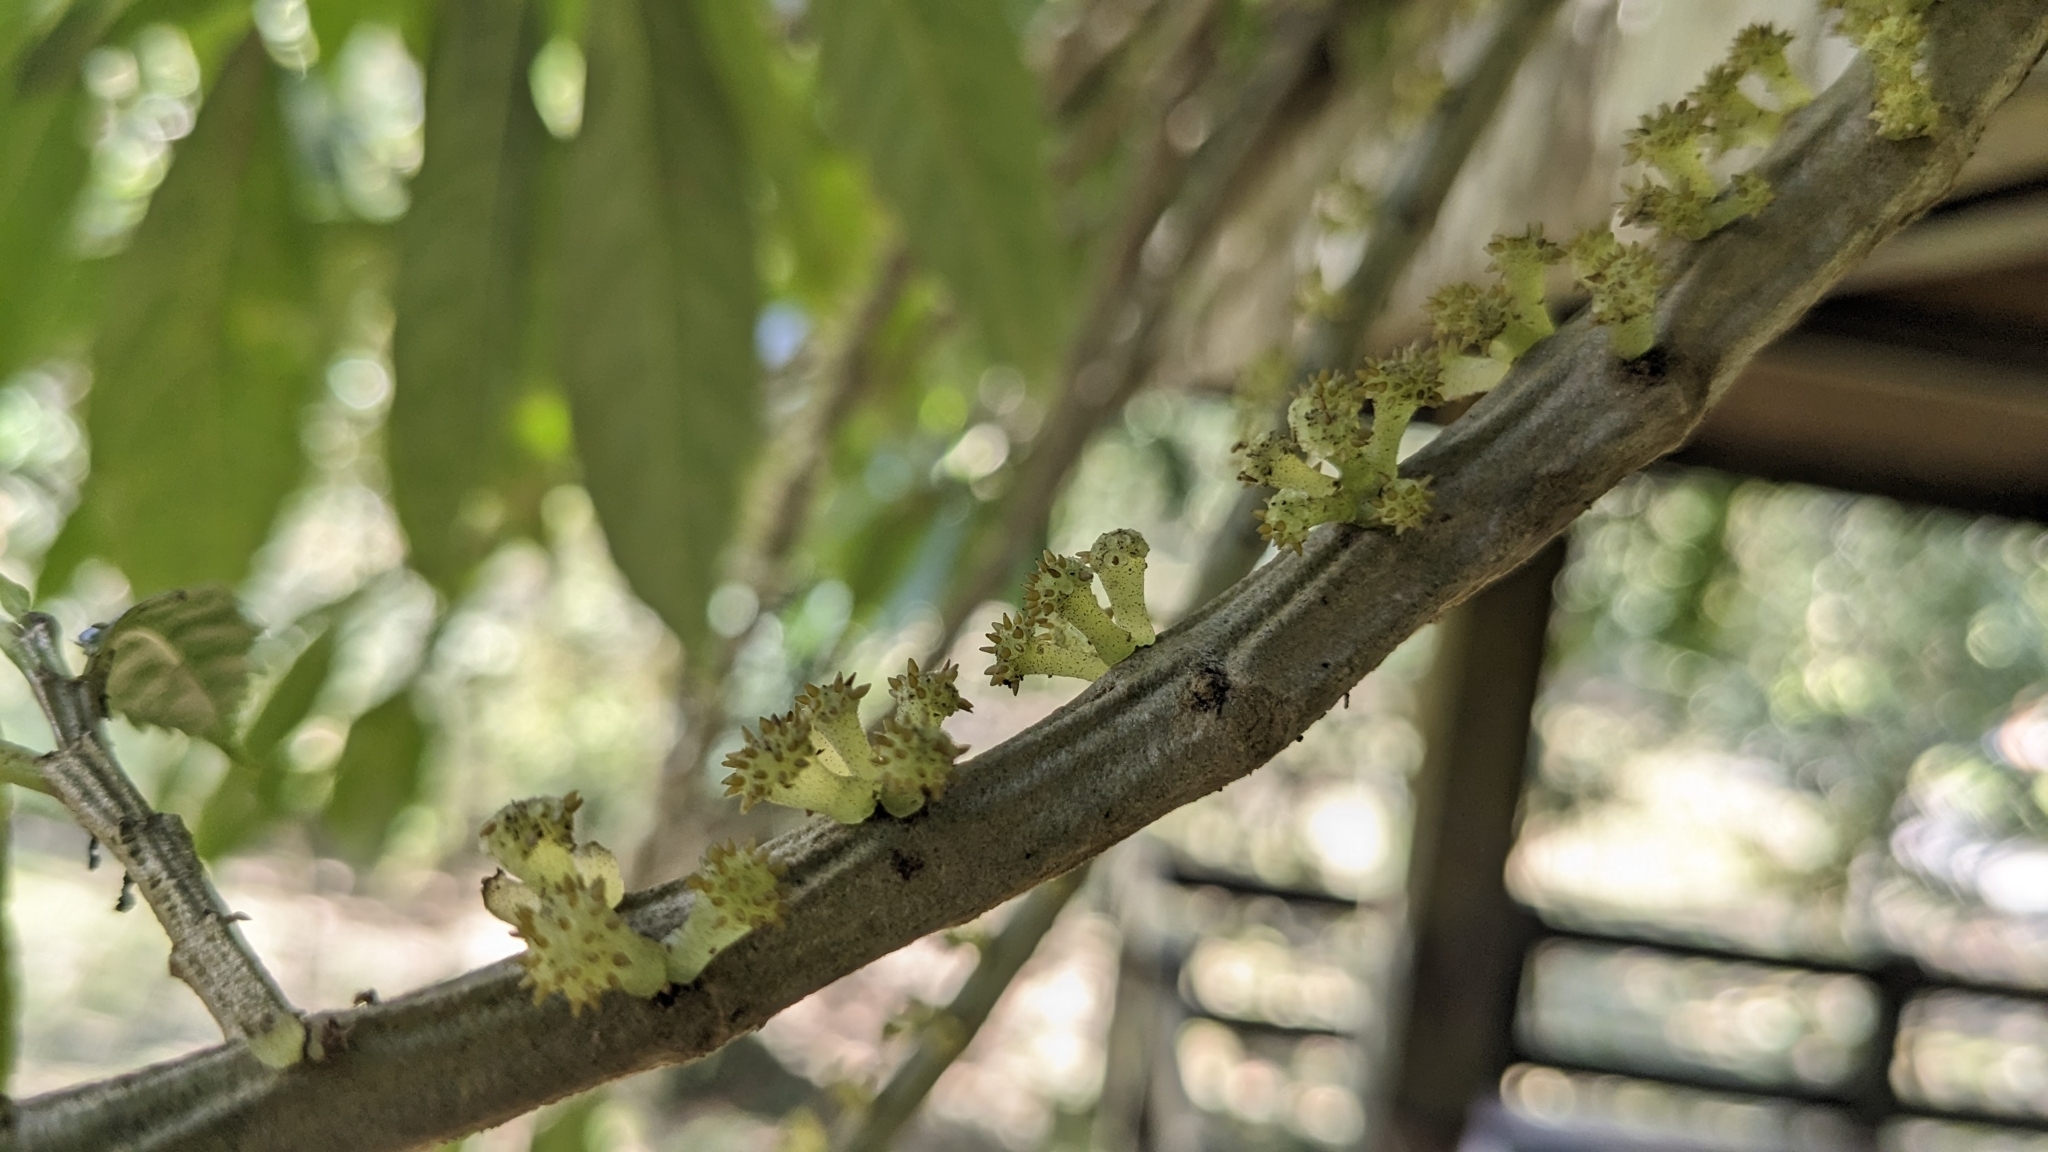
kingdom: Plantae
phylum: Tracheophyta
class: Magnoliopsida
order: Rosales
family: Urticaceae
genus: Procris
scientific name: Procris
